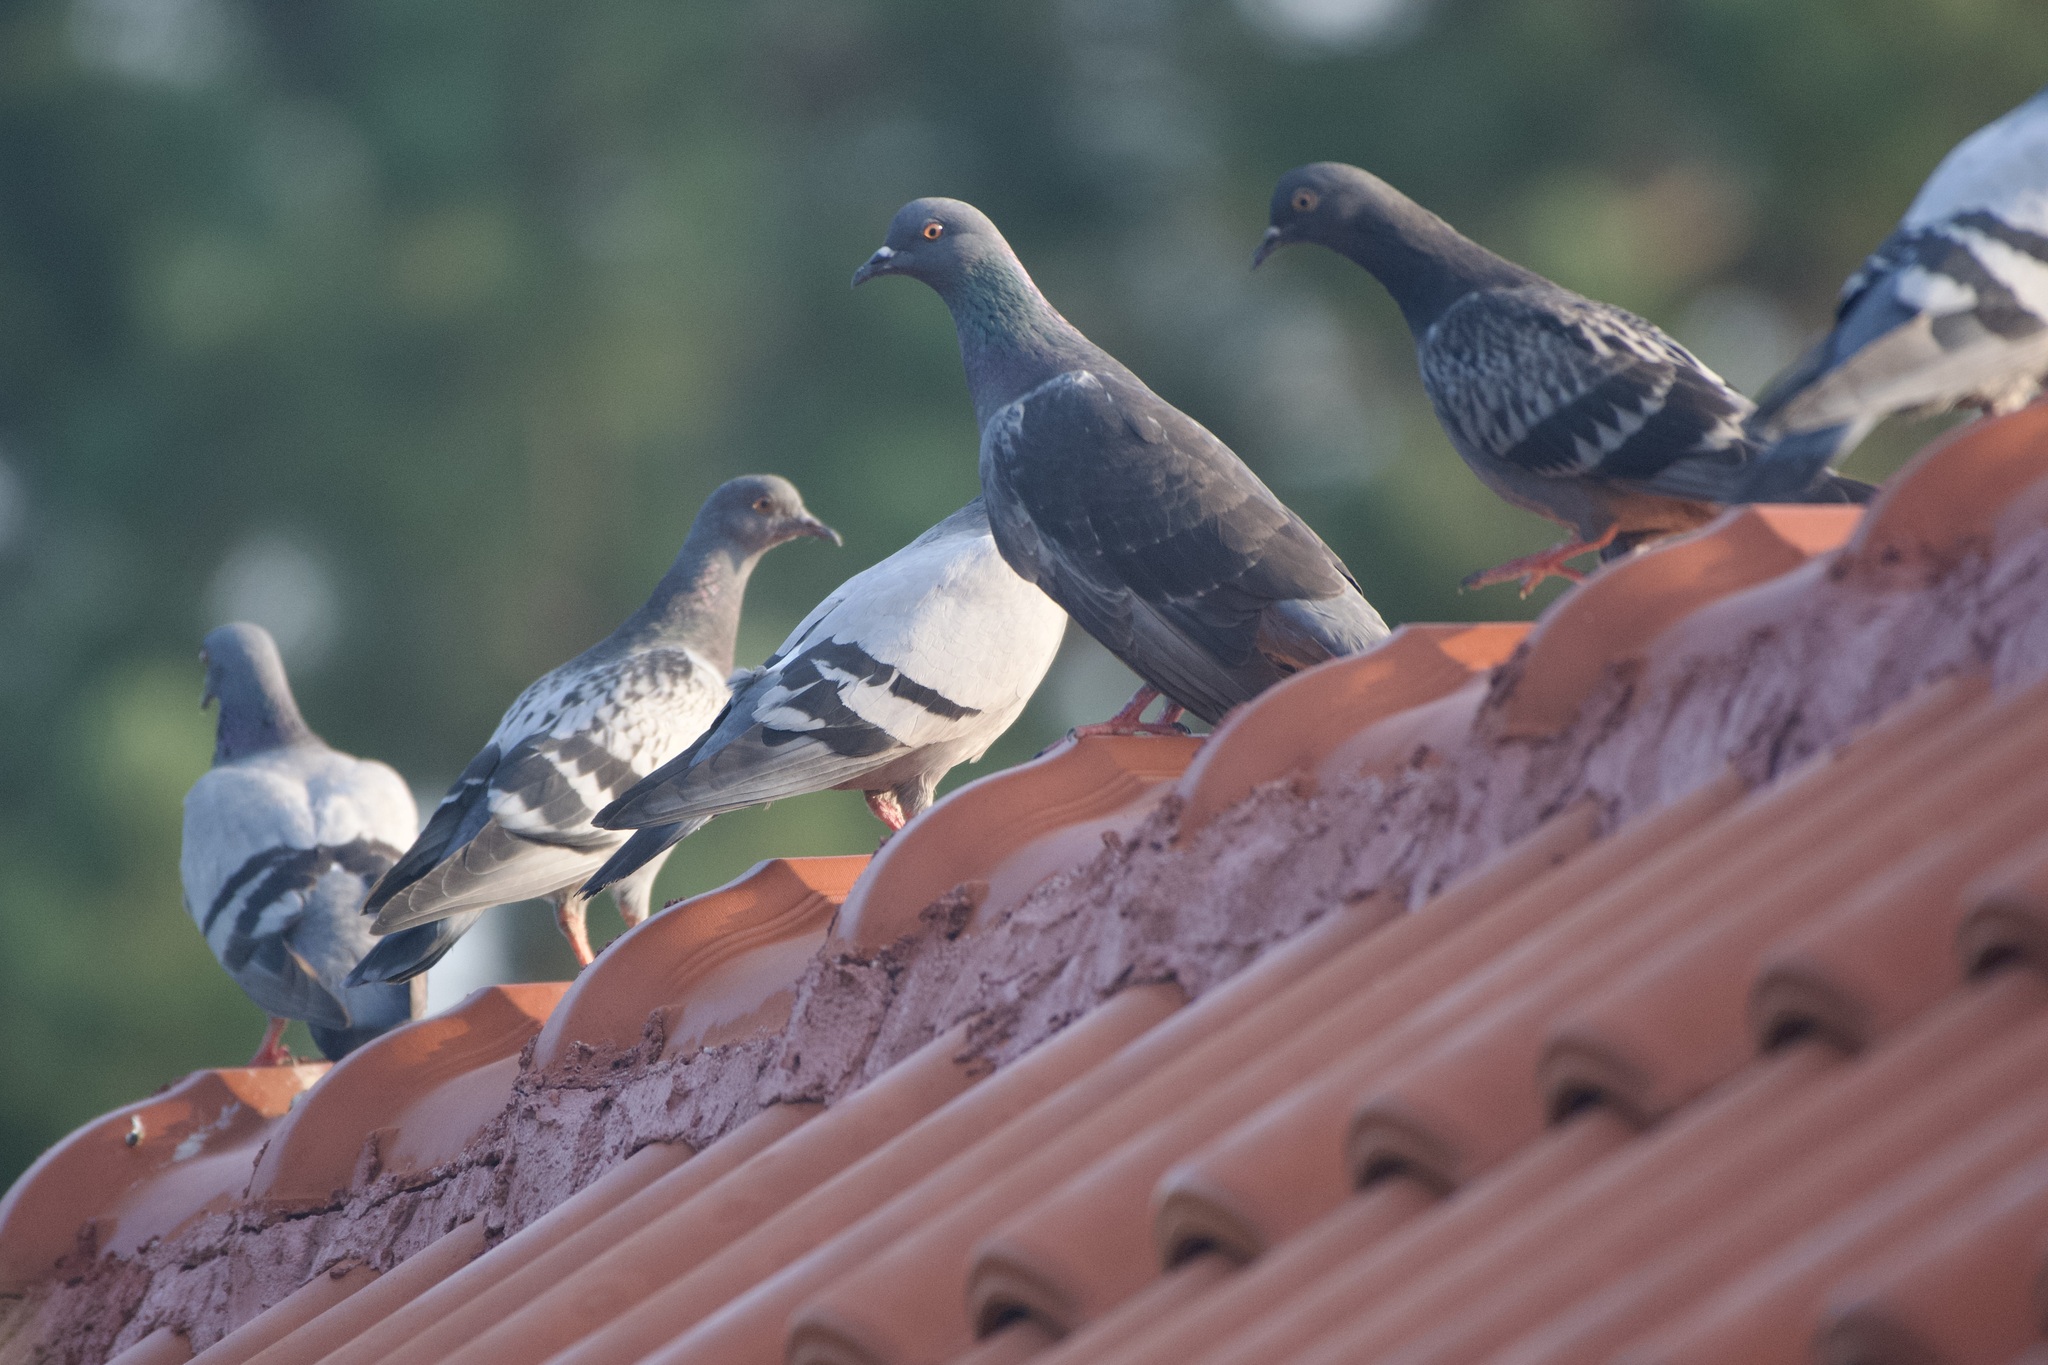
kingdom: Animalia
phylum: Chordata
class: Aves
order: Columbiformes
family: Columbidae
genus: Columba
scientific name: Columba livia
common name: Rock pigeon
